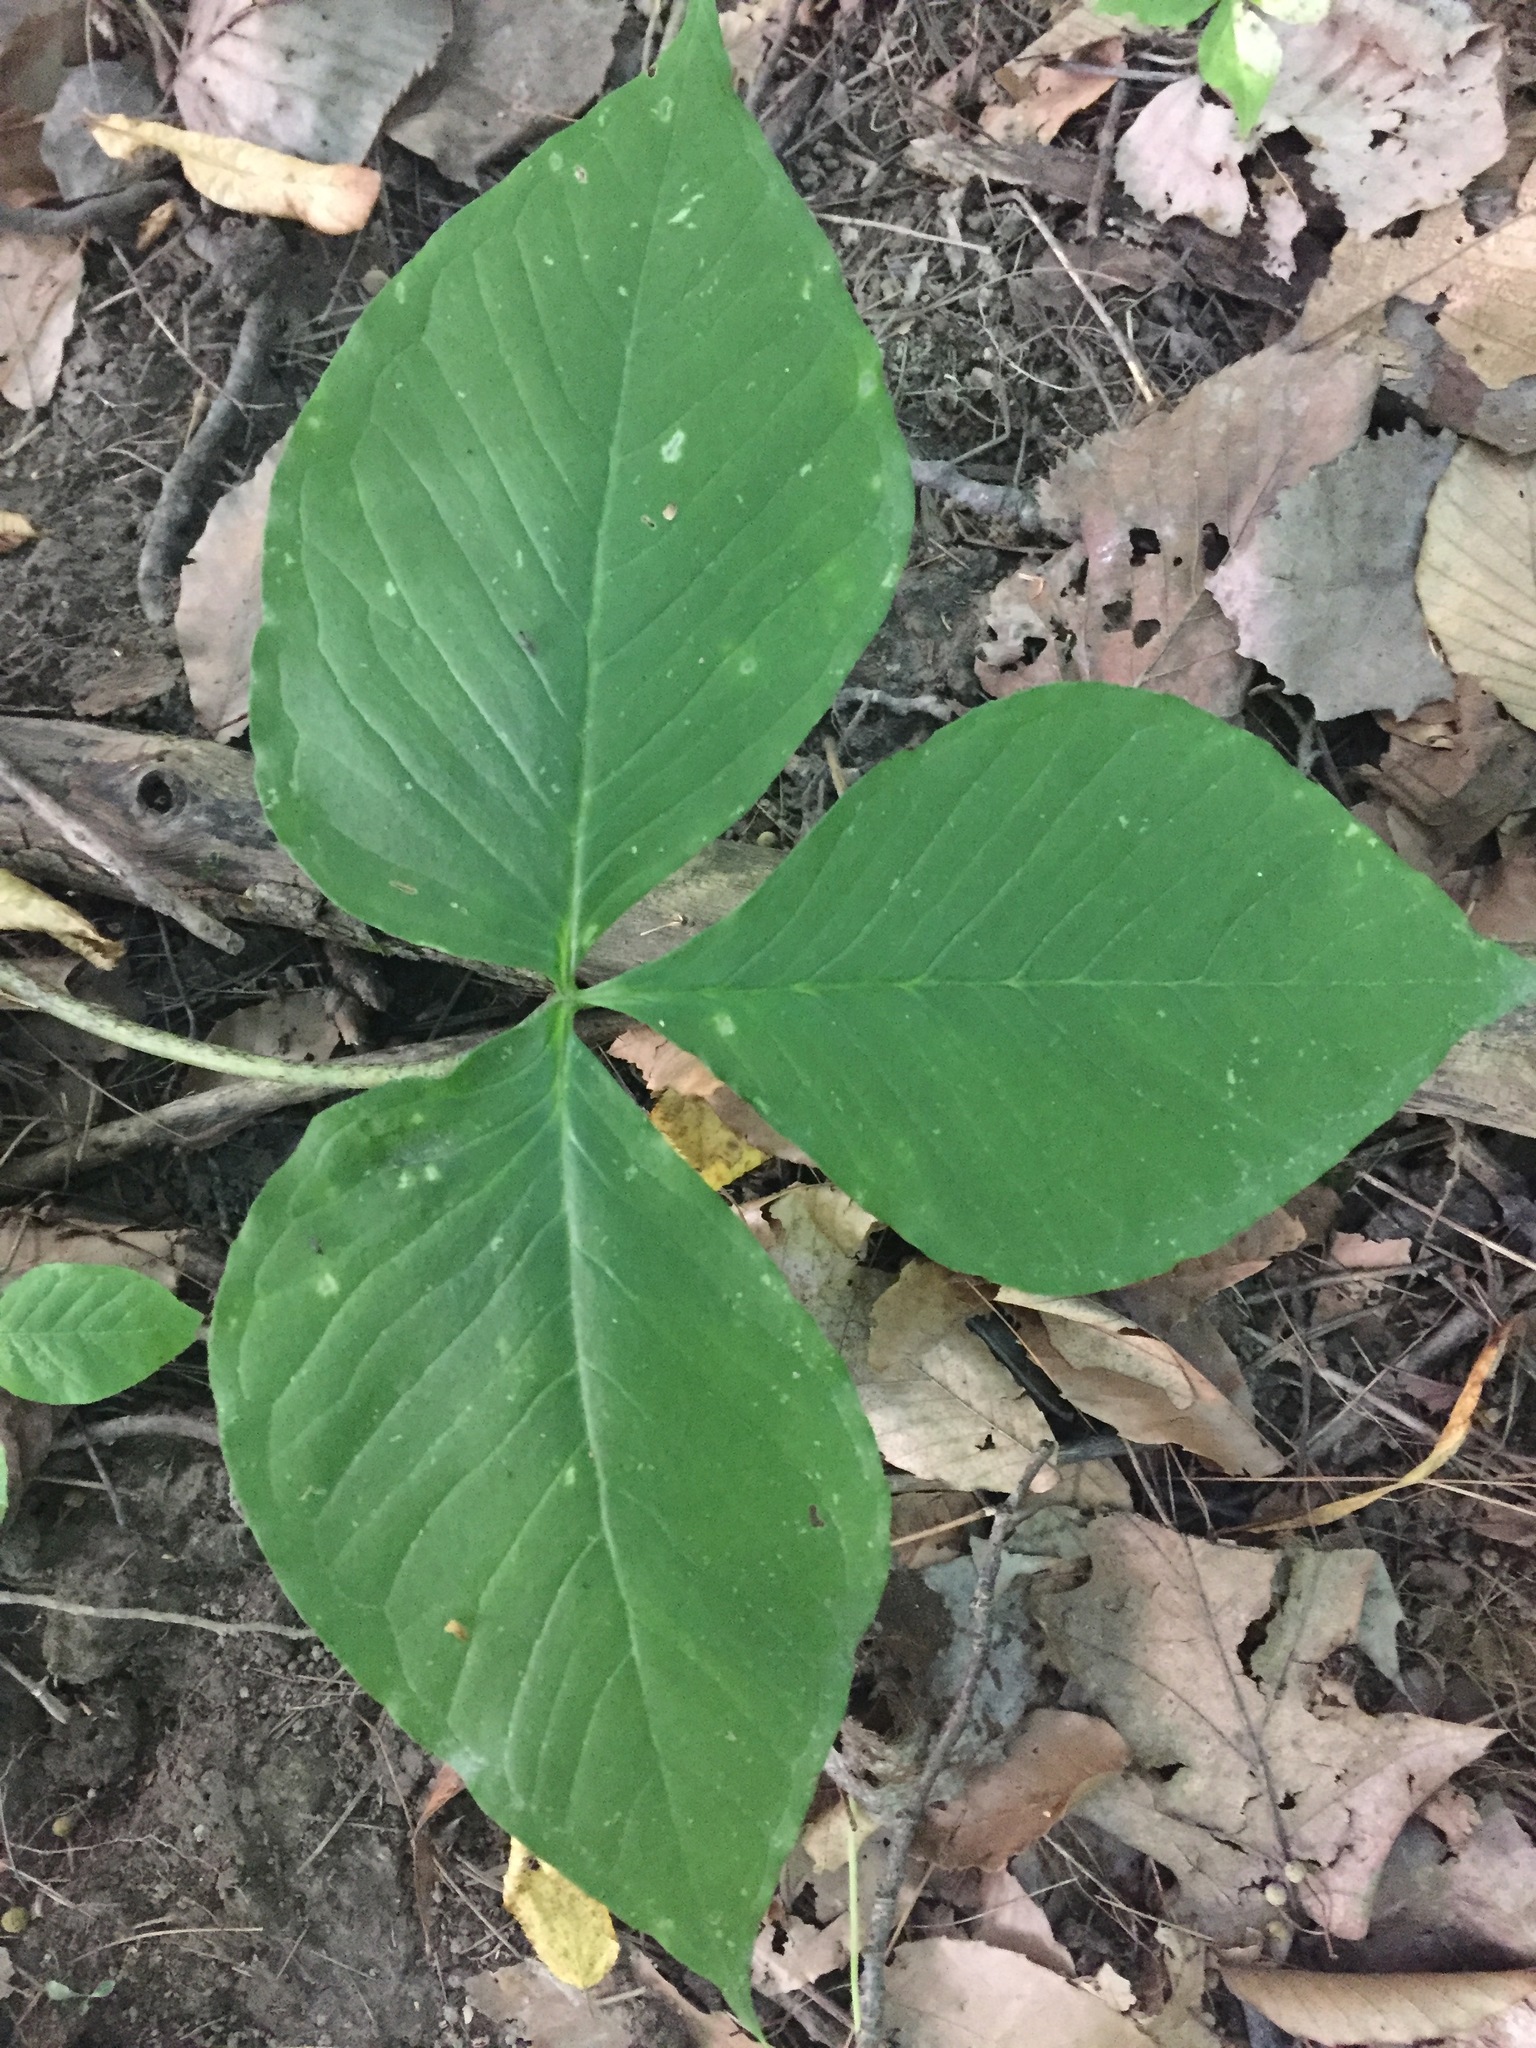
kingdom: Plantae
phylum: Tracheophyta
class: Liliopsida
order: Alismatales
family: Araceae
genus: Arisaema
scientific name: Arisaema triphyllum
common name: Jack-in-the-pulpit
